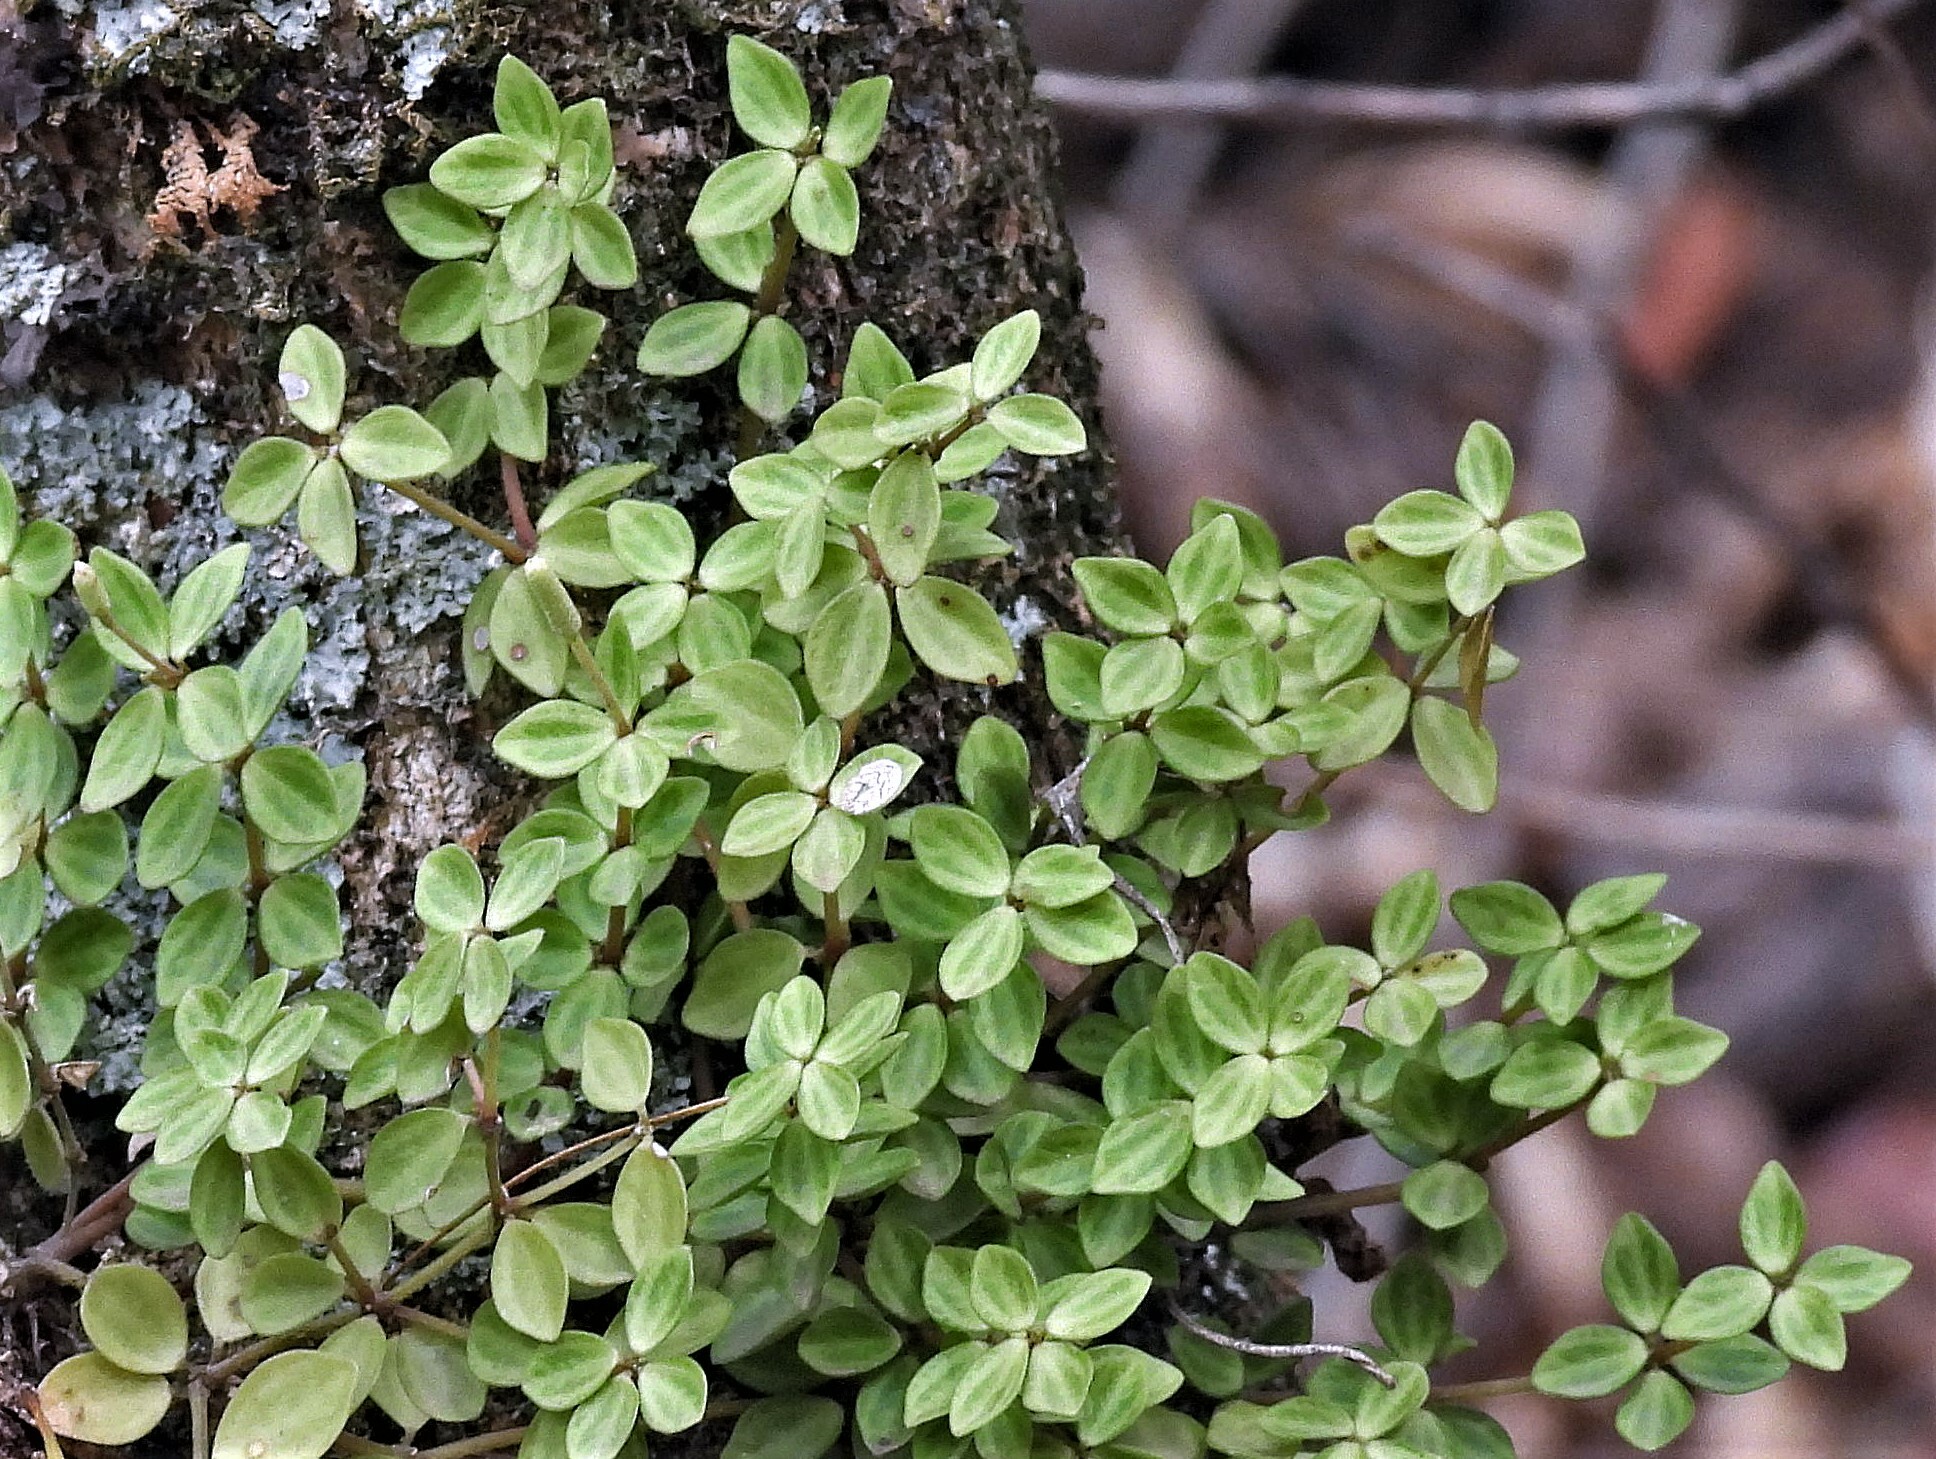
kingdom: Plantae
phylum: Tracheophyta
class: Magnoliopsida
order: Piperales
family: Piperaceae
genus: Peperomia
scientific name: Peperomia tetraphylla
